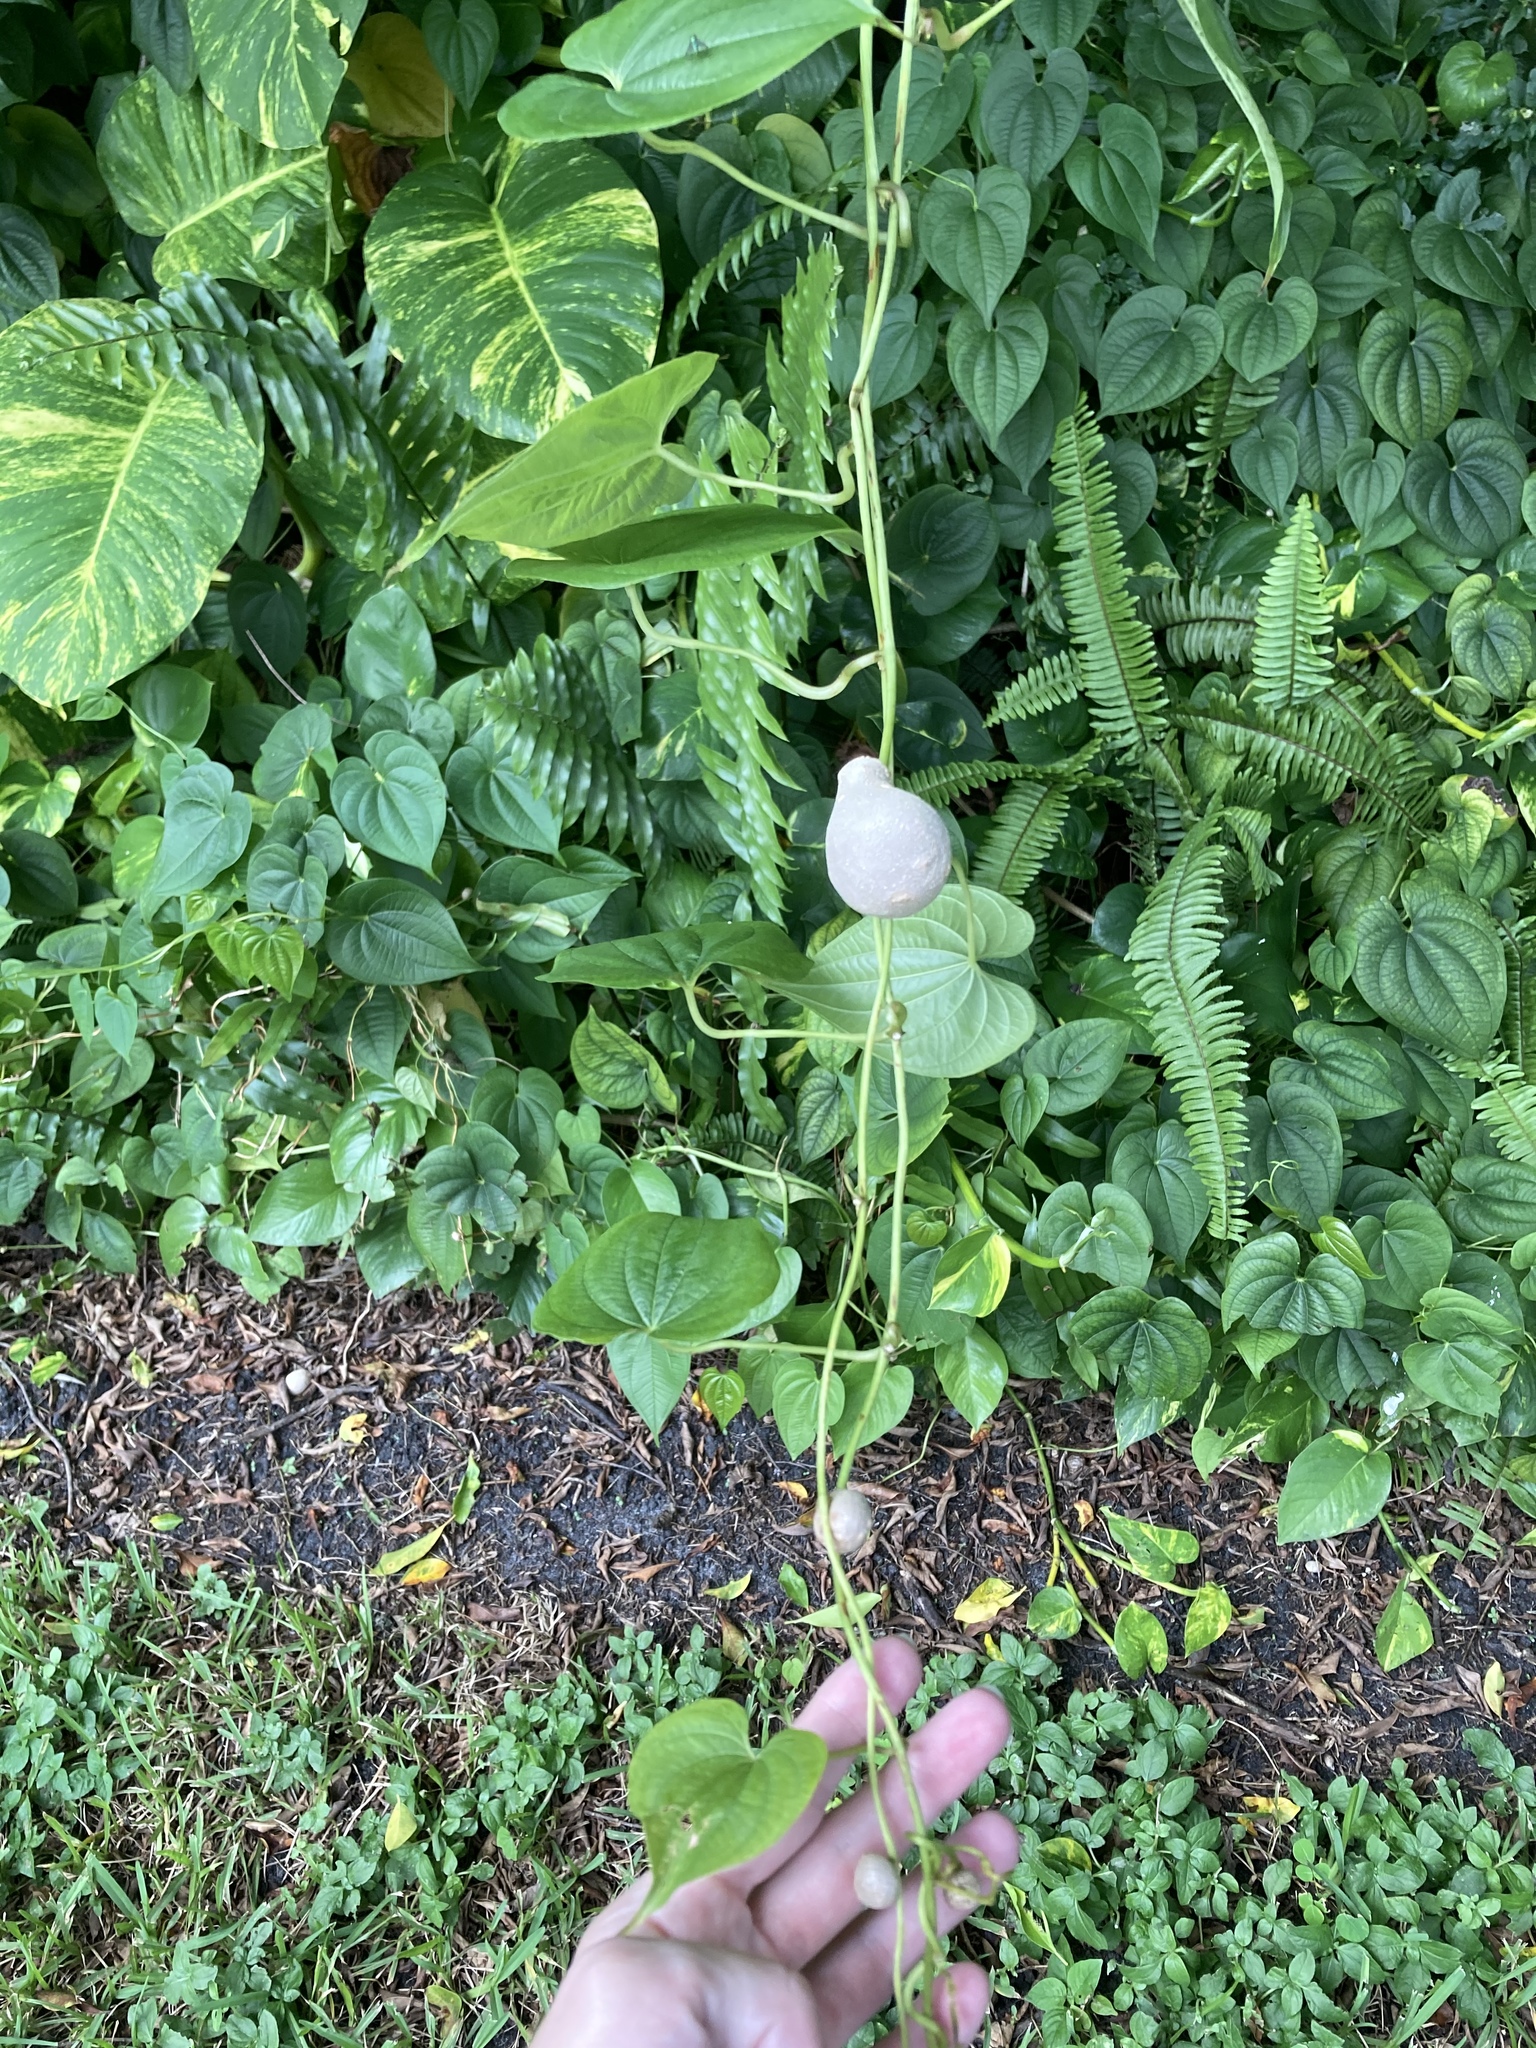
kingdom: Plantae
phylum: Tracheophyta
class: Liliopsida
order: Dioscoreales
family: Dioscoreaceae
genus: Dioscorea
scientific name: Dioscorea bulbifera
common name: Air yam
